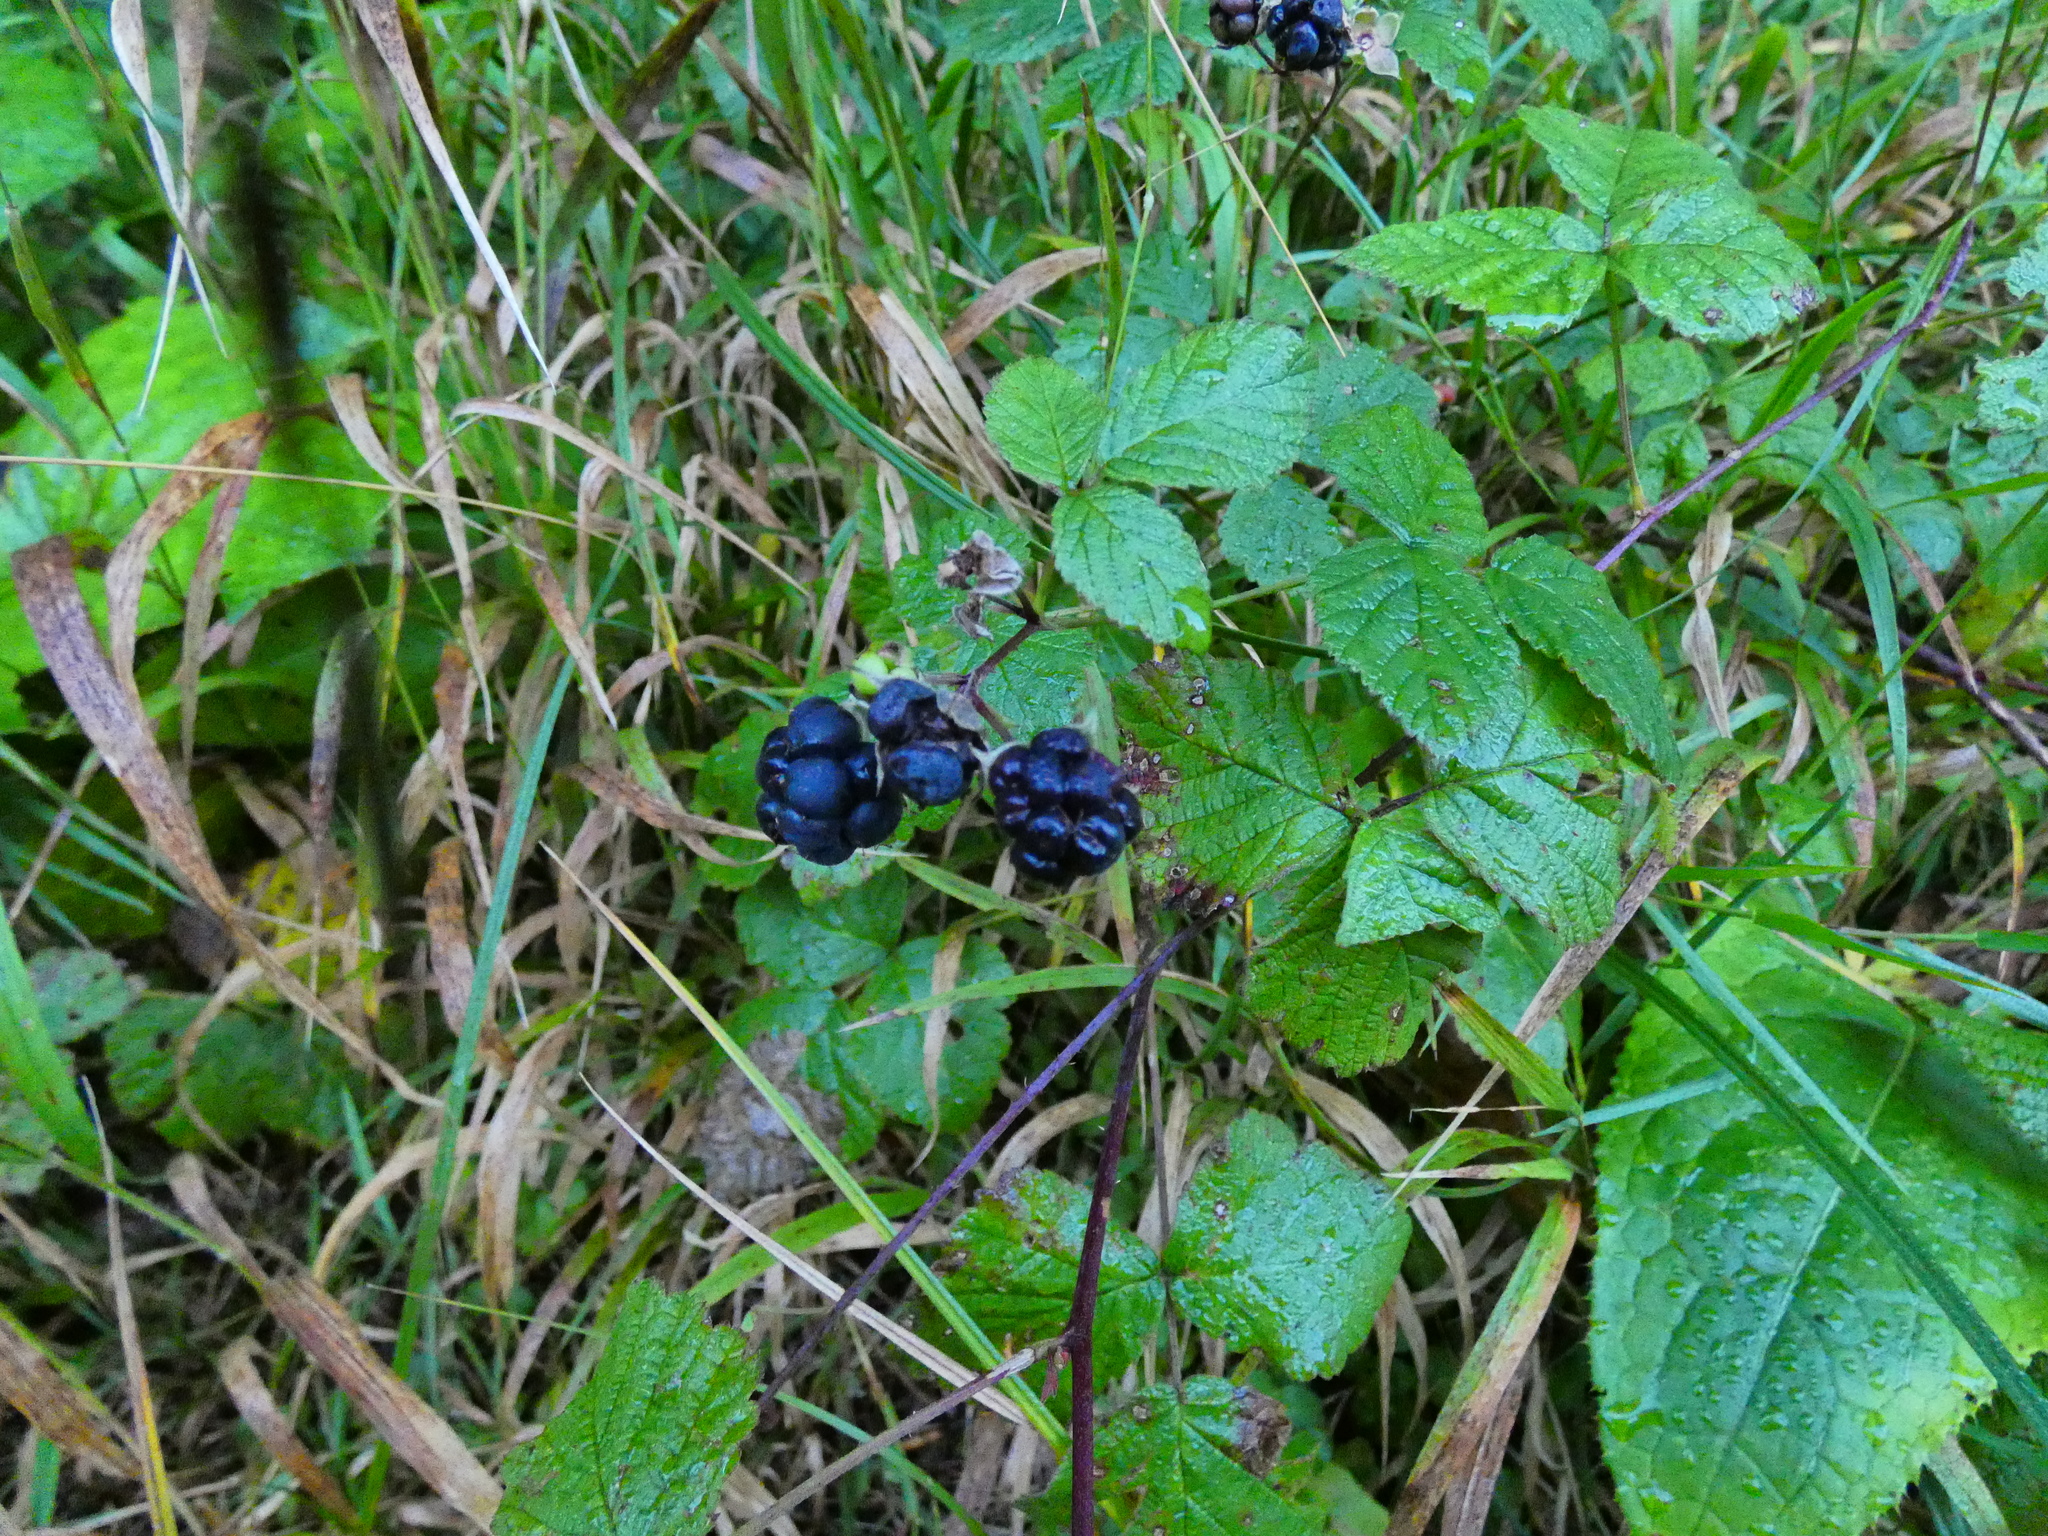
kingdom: Plantae
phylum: Tracheophyta
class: Magnoliopsida
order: Rosales
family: Rosaceae
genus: Rubus
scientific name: Rubus caesius
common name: Dewberry
